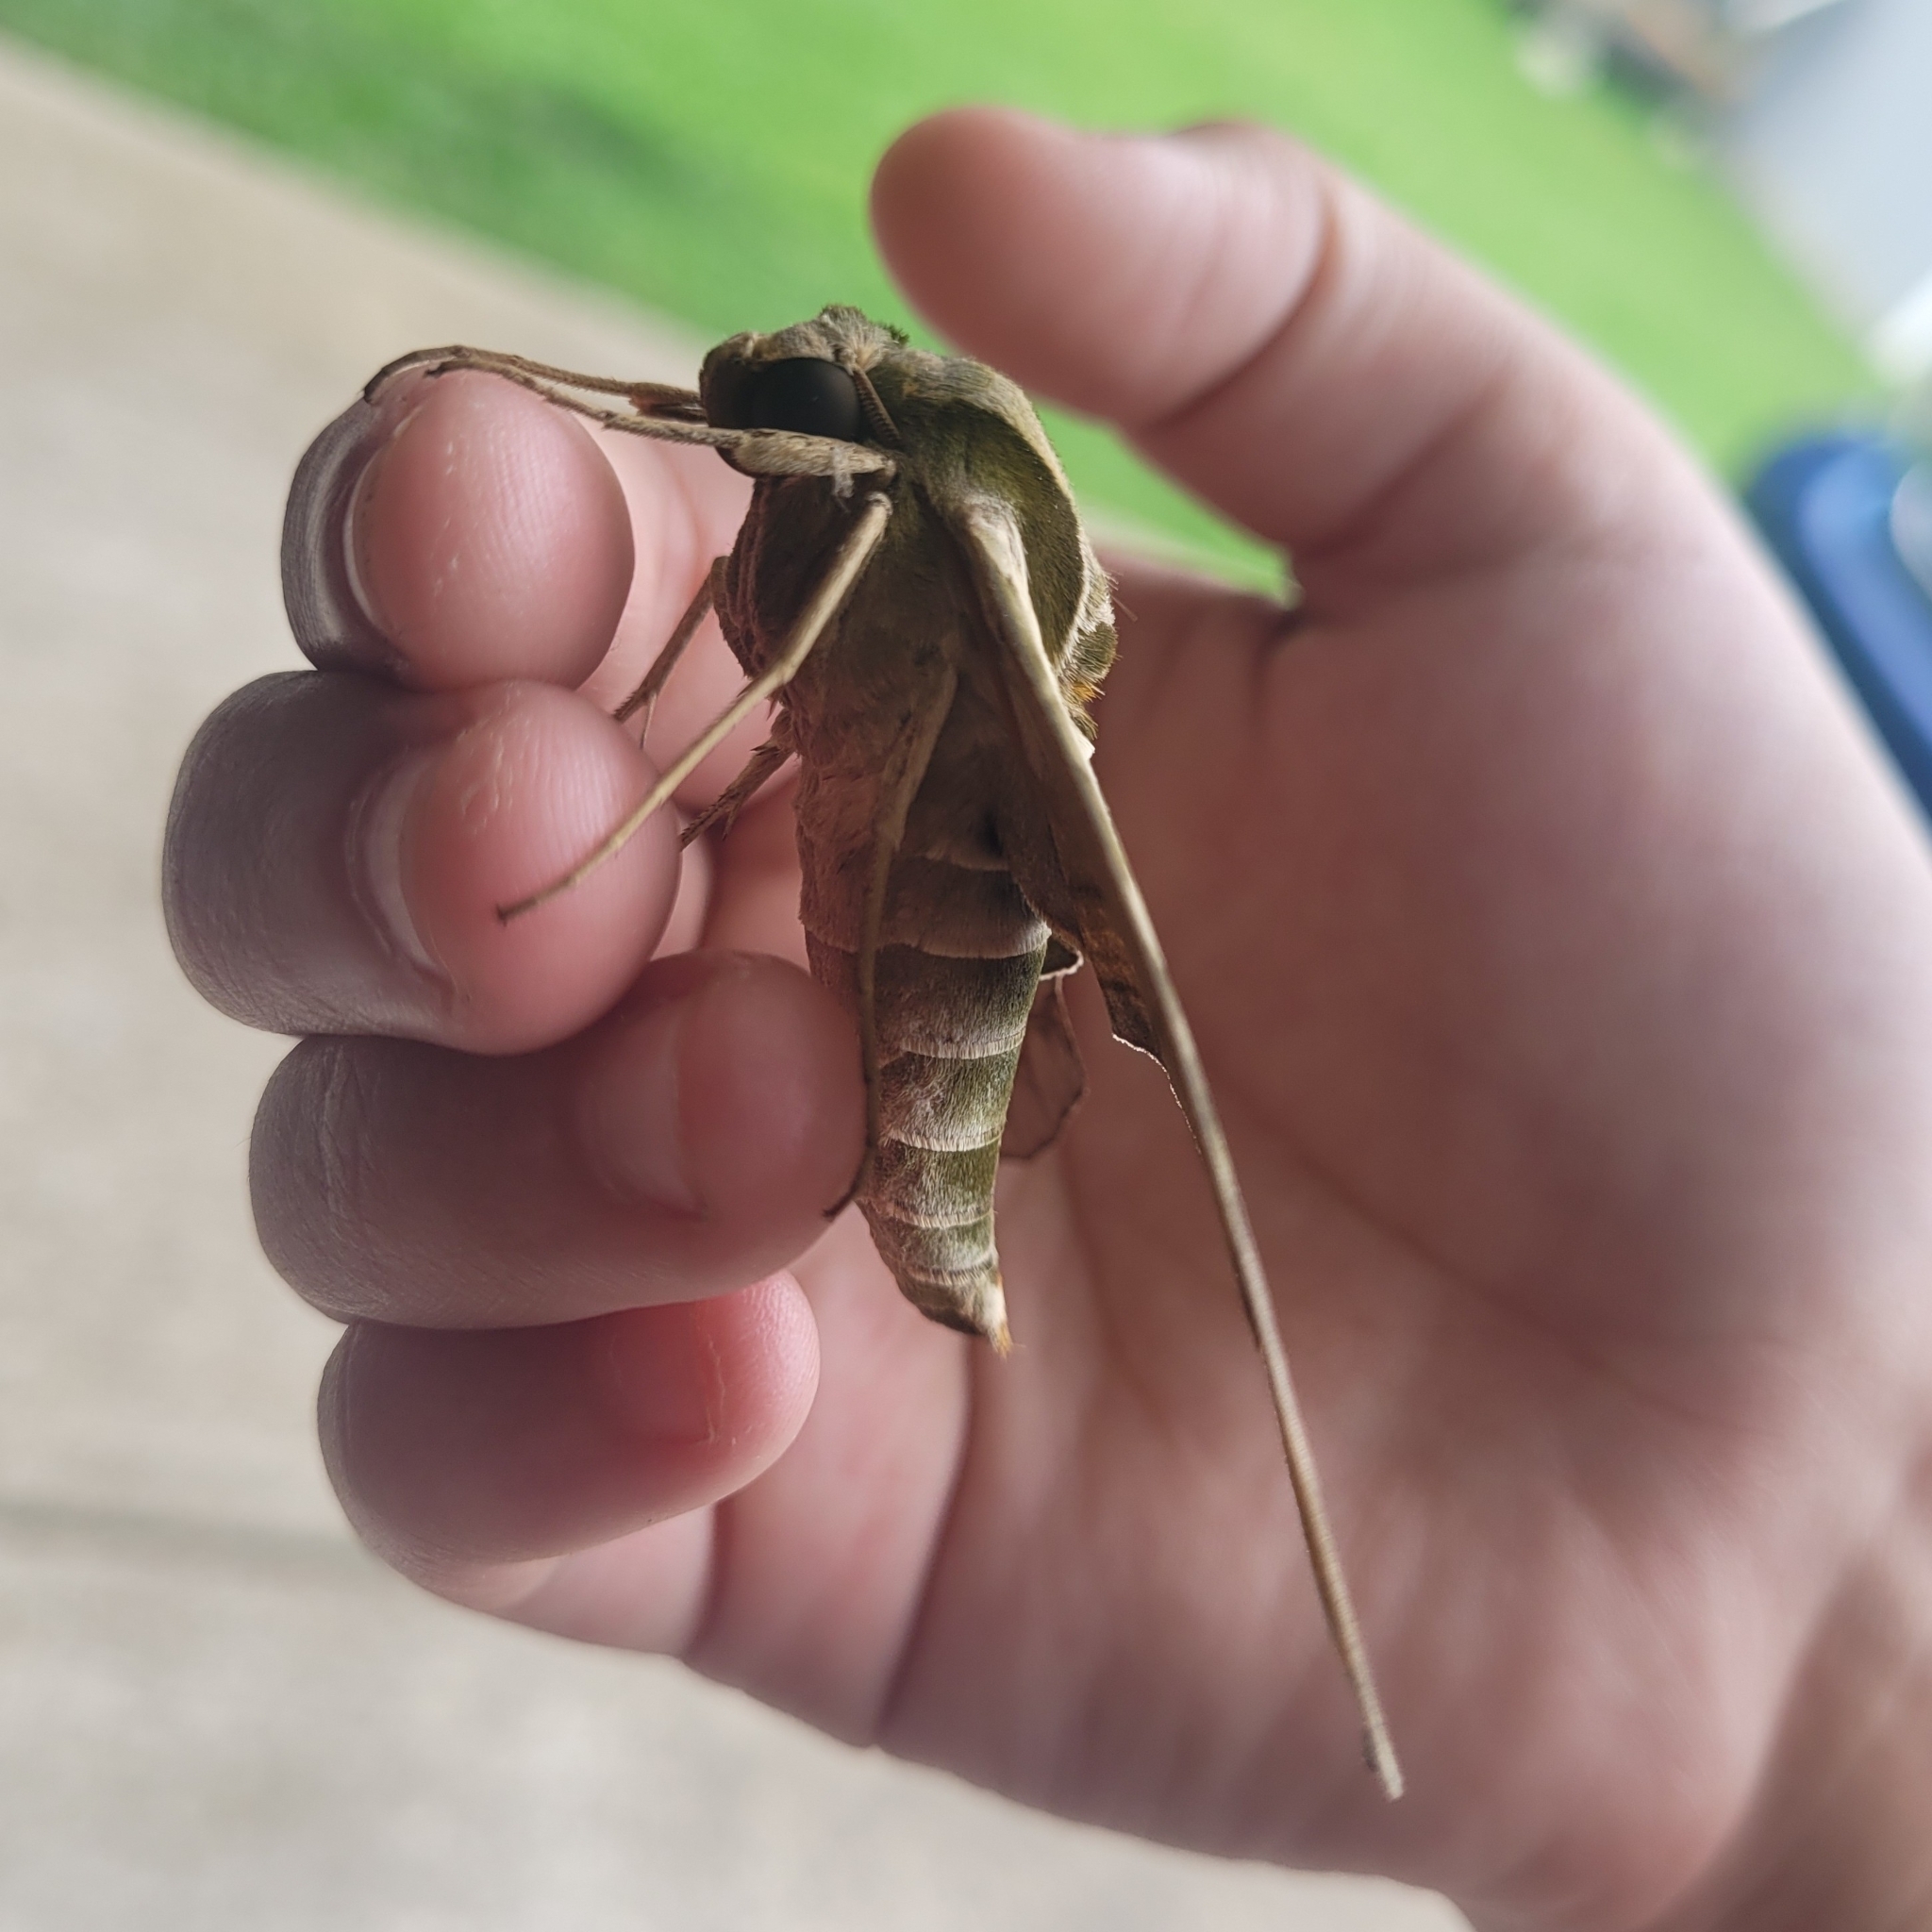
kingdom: Animalia
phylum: Arthropoda
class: Insecta
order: Lepidoptera
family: Sphingidae
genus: Eumorpha
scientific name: Eumorpha pandorus
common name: Pandora sphinx
